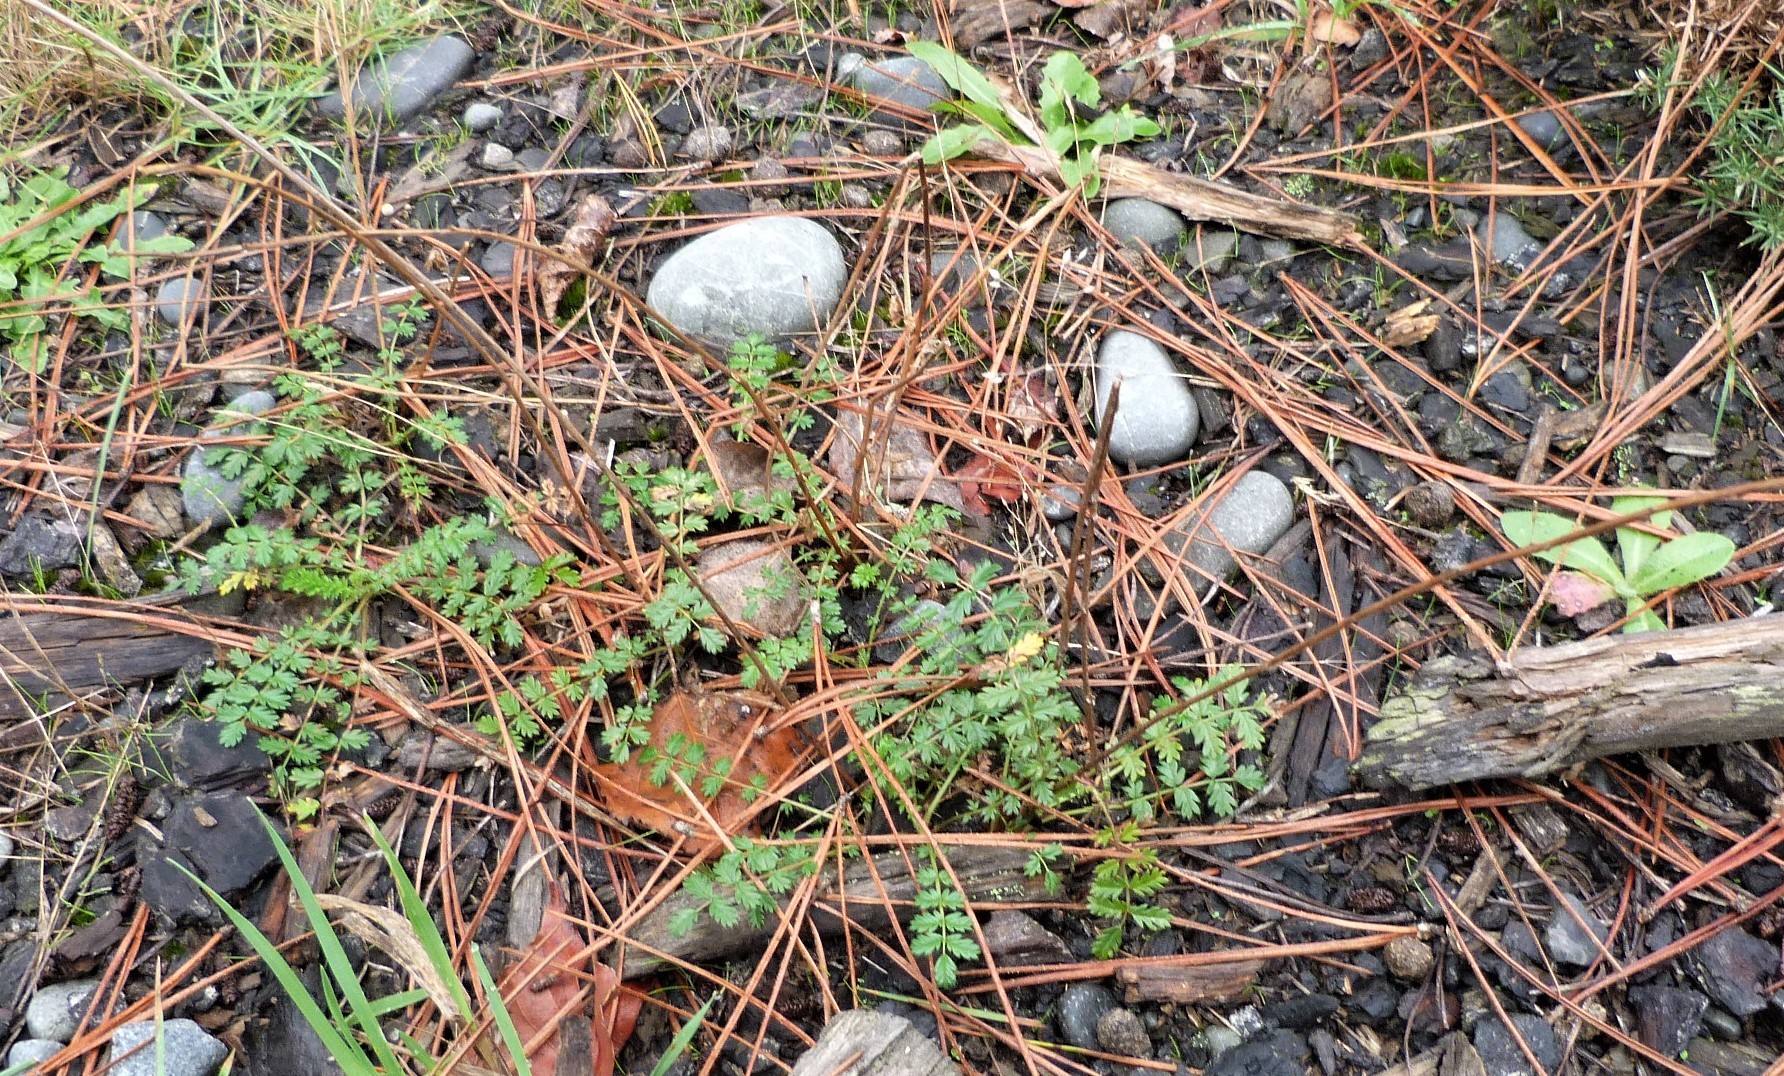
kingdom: Plantae
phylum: Tracheophyta
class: Magnoliopsida
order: Rosales
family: Rosaceae
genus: Acaena
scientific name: Acaena agnipila
